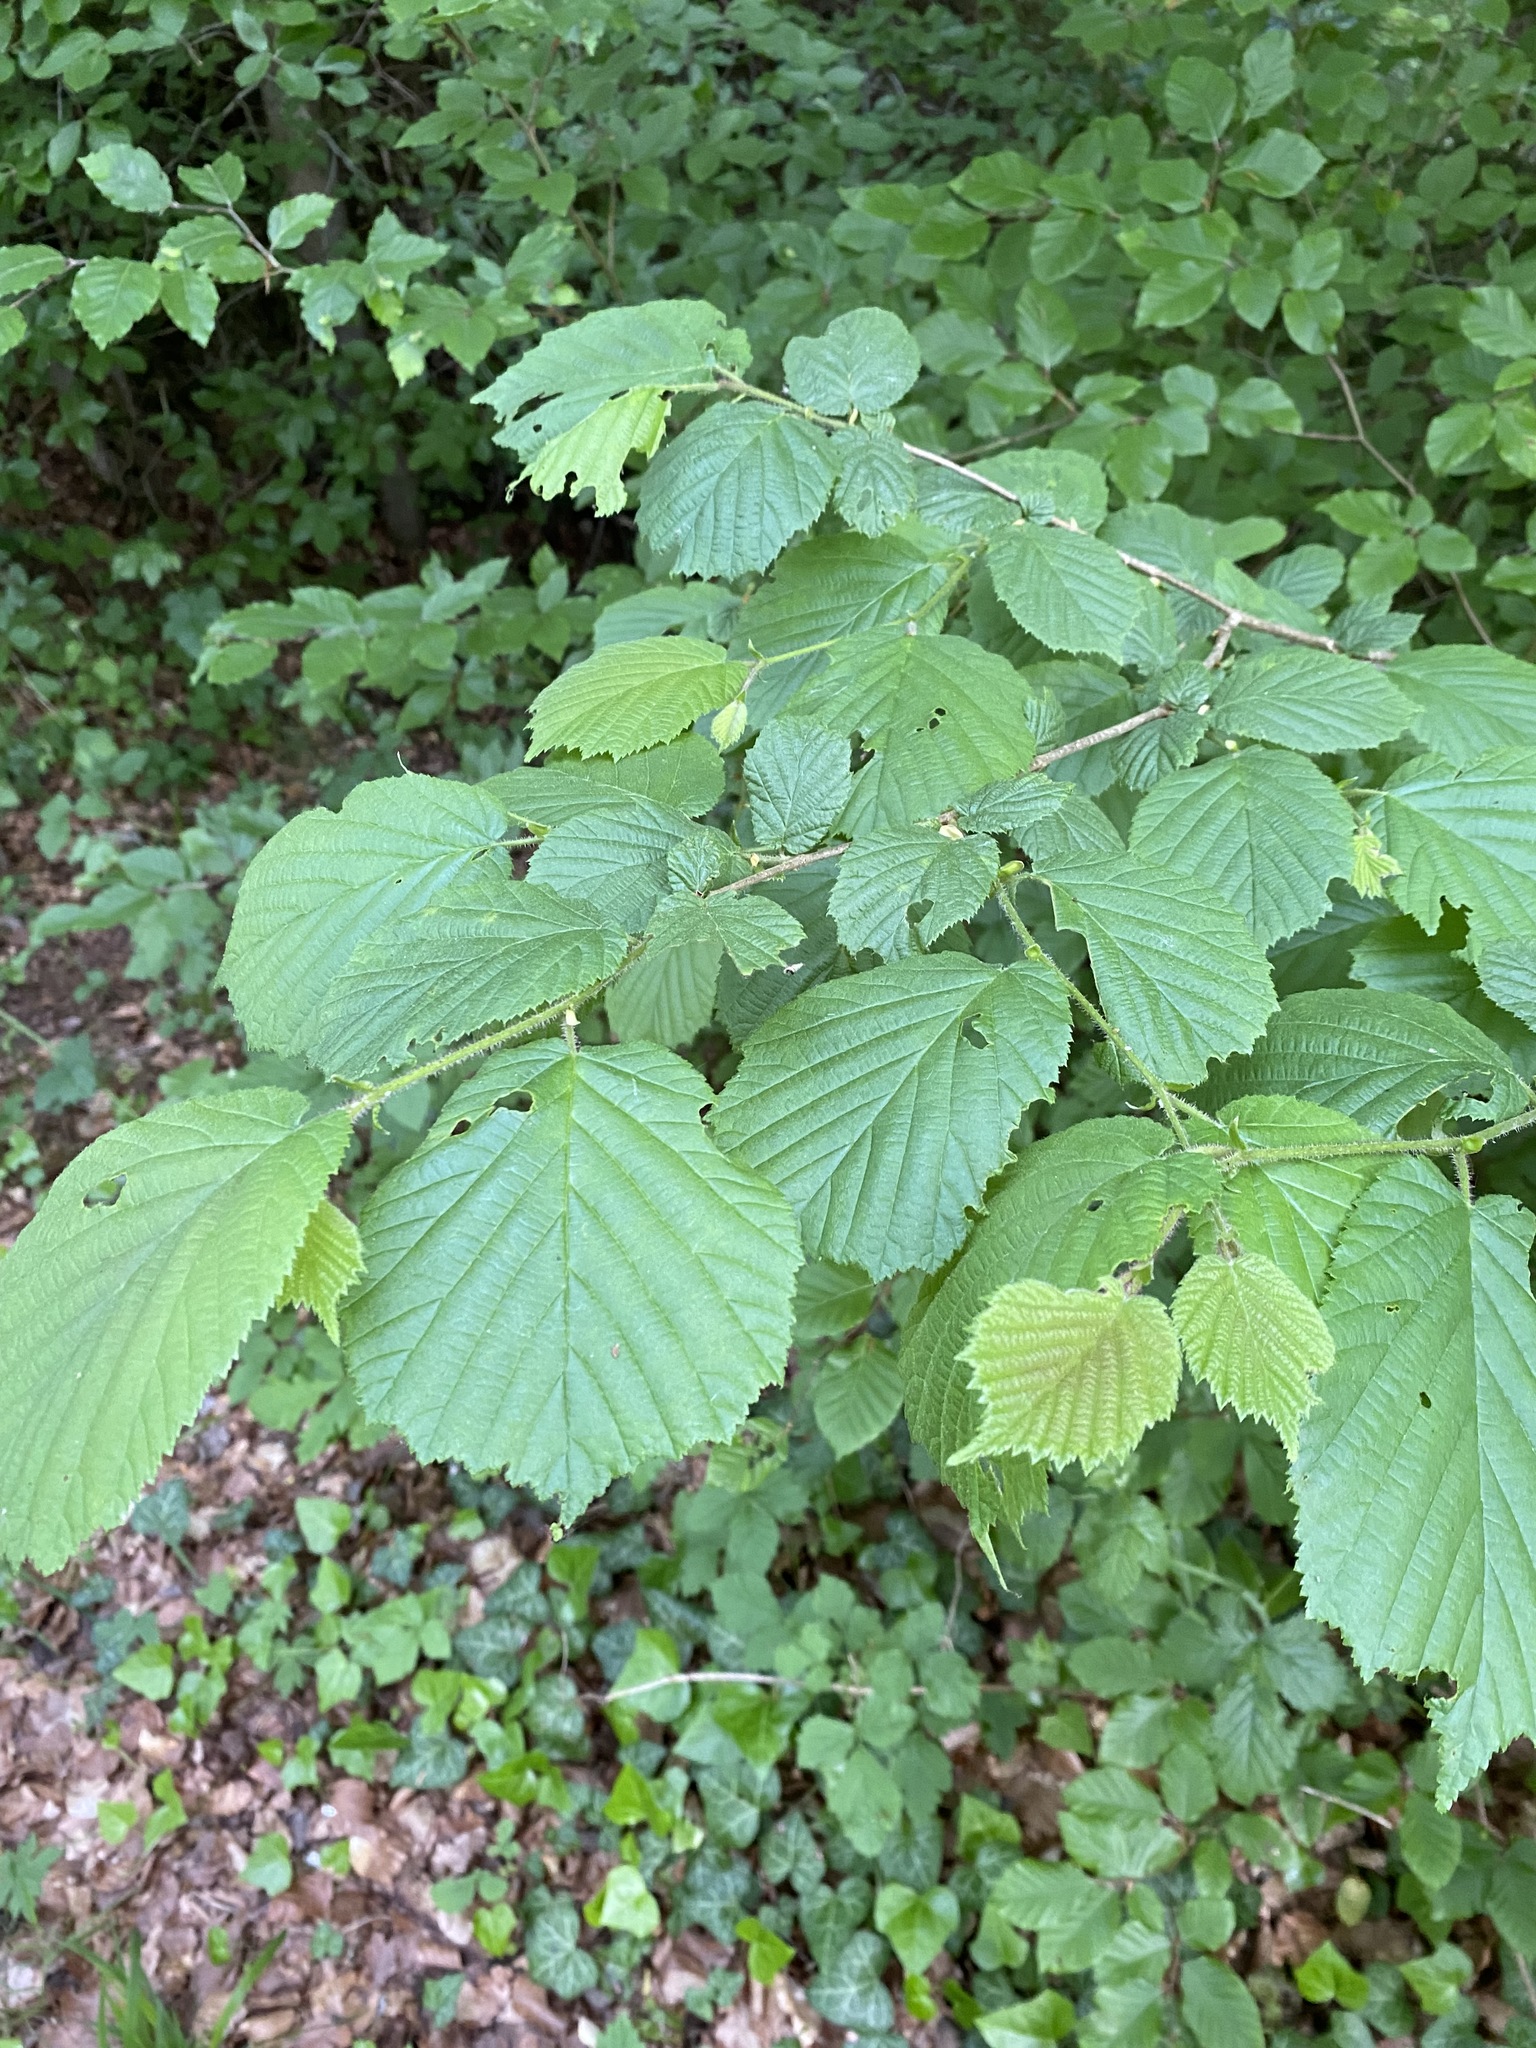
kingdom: Plantae
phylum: Tracheophyta
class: Magnoliopsida
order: Fagales
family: Betulaceae
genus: Corylus
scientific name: Corylus avellana
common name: European hazel
